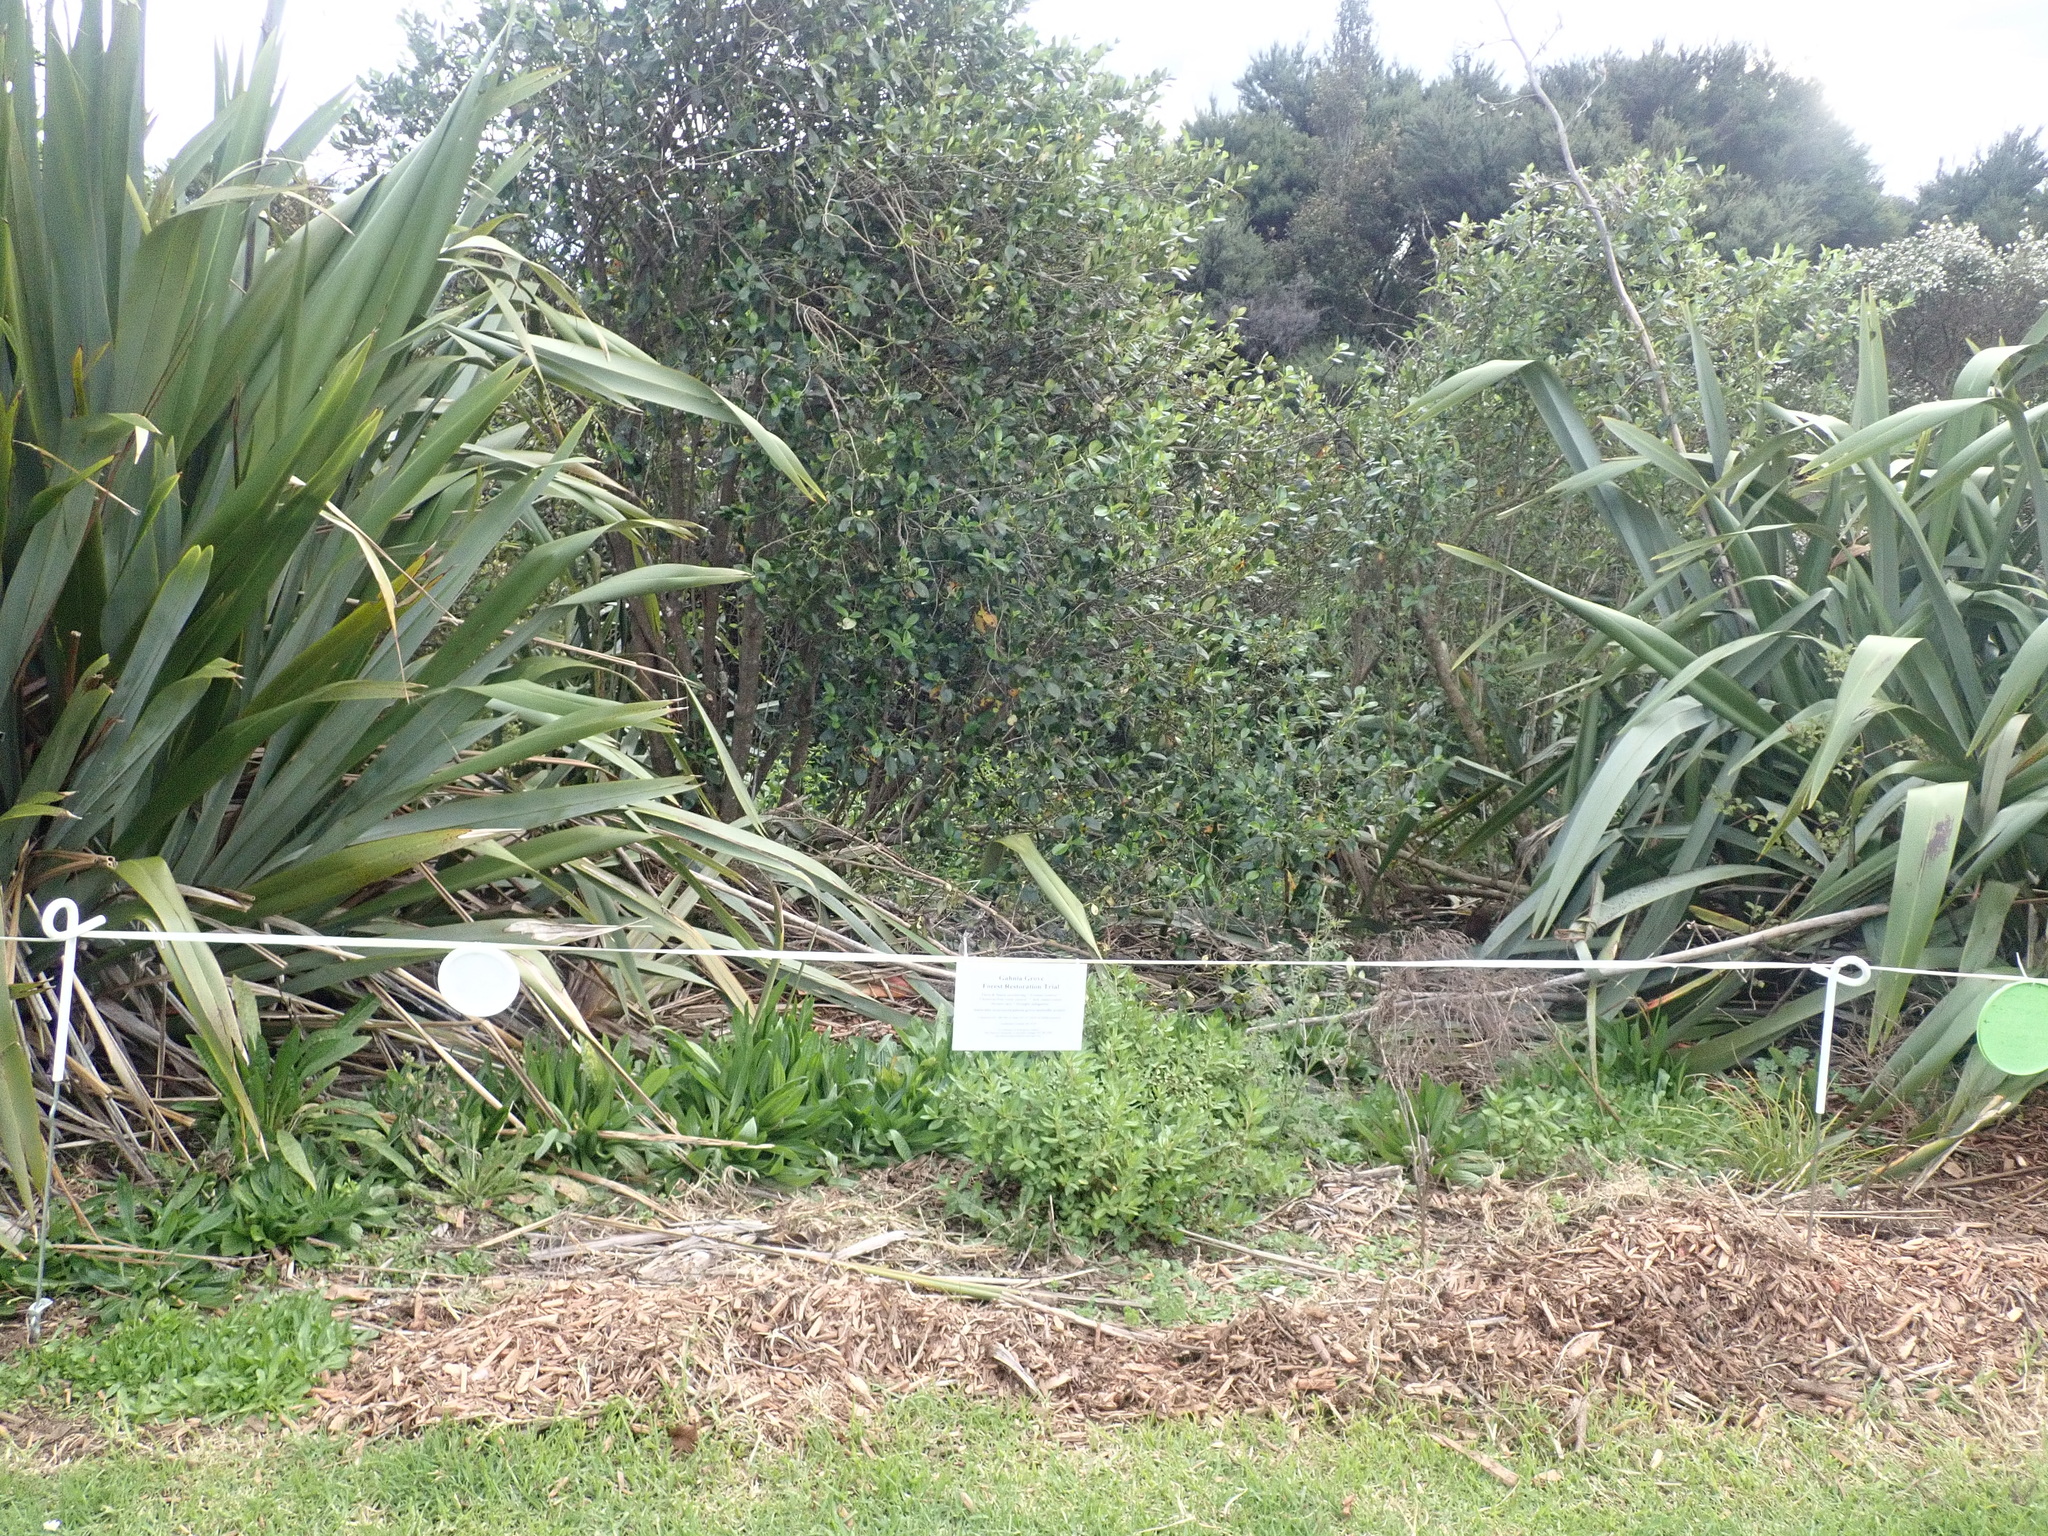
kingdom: Plantae
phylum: Tracheophyta
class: Magnoliopsida
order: Lamiales
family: Plantaginaceae
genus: Plantago
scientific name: Plantago lanceolata
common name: Ribwort plantain
